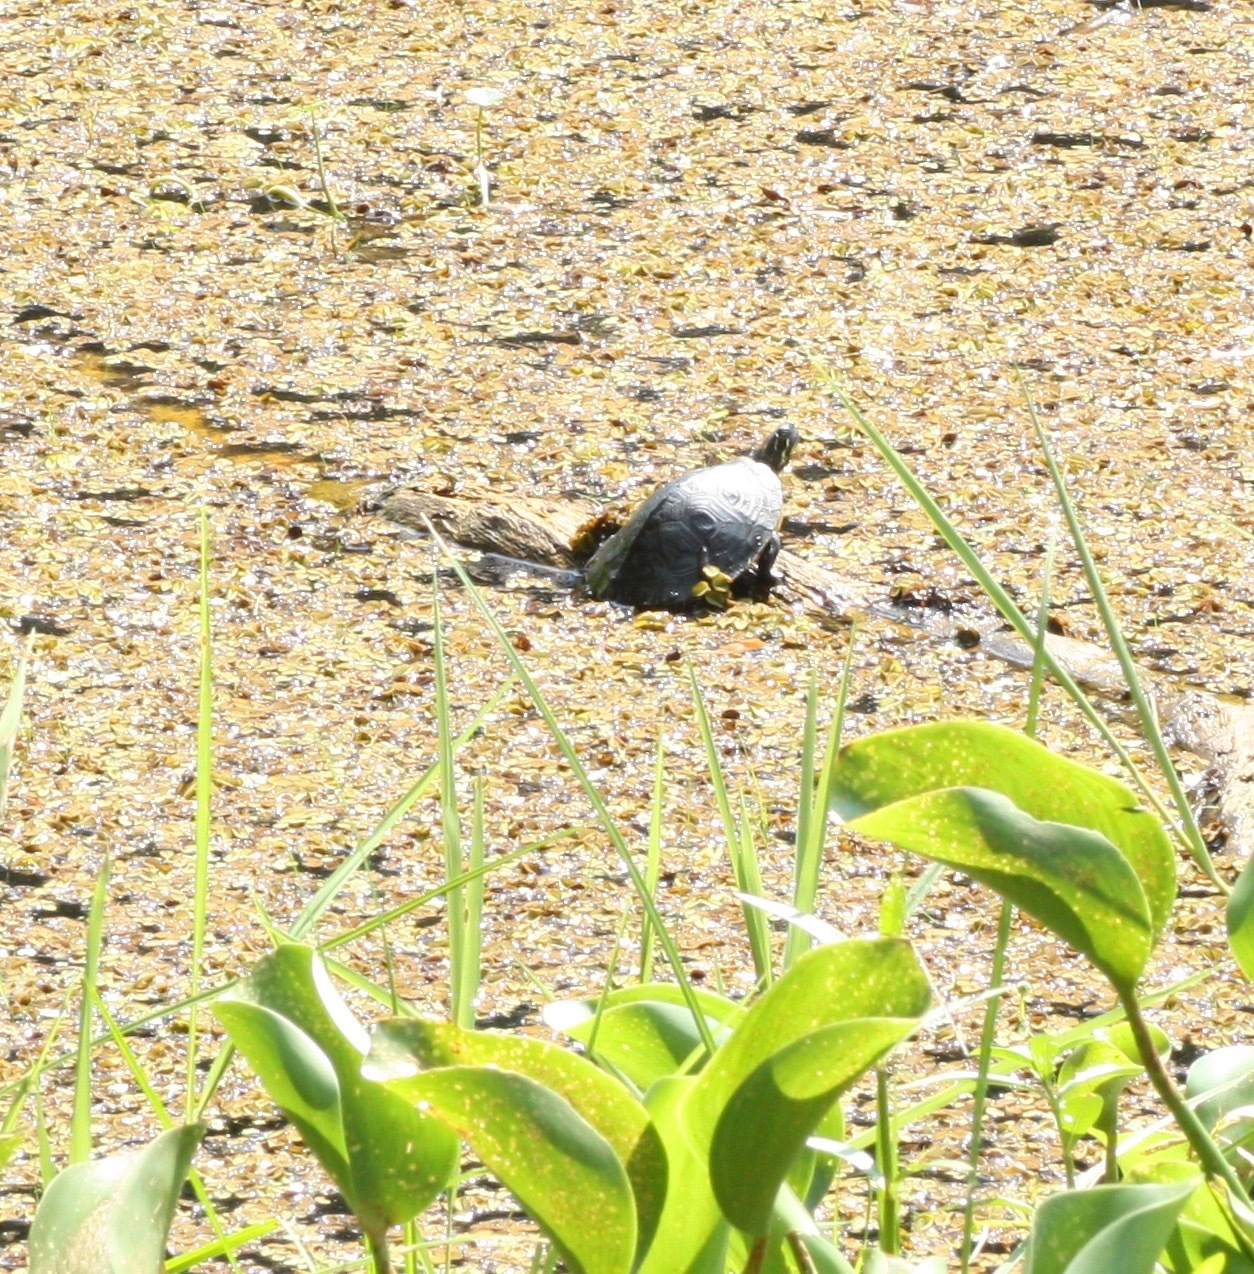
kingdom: Animalia
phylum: Chordata
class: Testudines
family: Emydidae
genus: Pseudemys
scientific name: Pseudemys concinna
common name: Eastern river cooter
